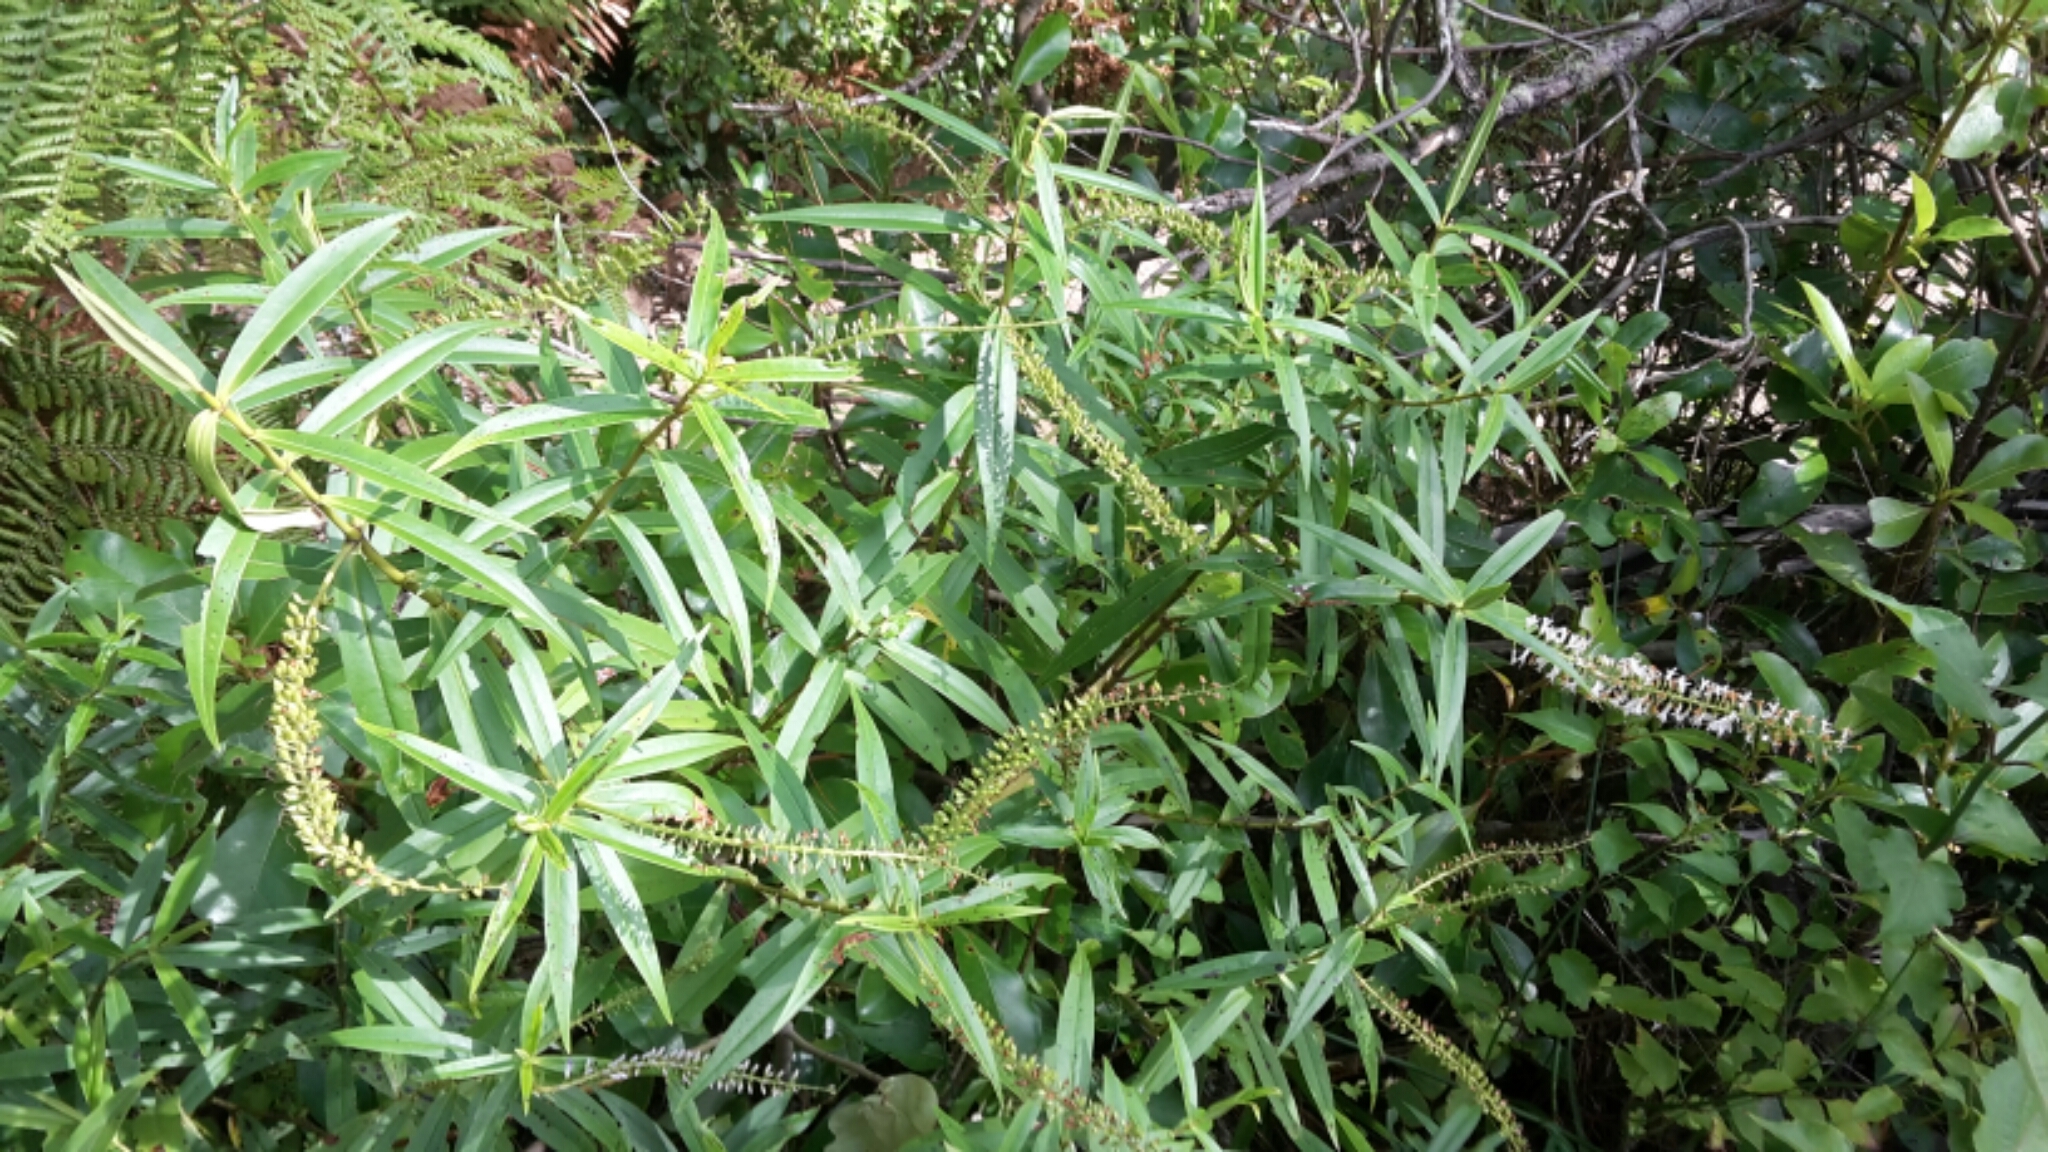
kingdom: Plantae
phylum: Tracheophyta
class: Magnoliopsida
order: Lamiales
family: Plantaginaceae
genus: Veronica
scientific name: Veronica stricta
